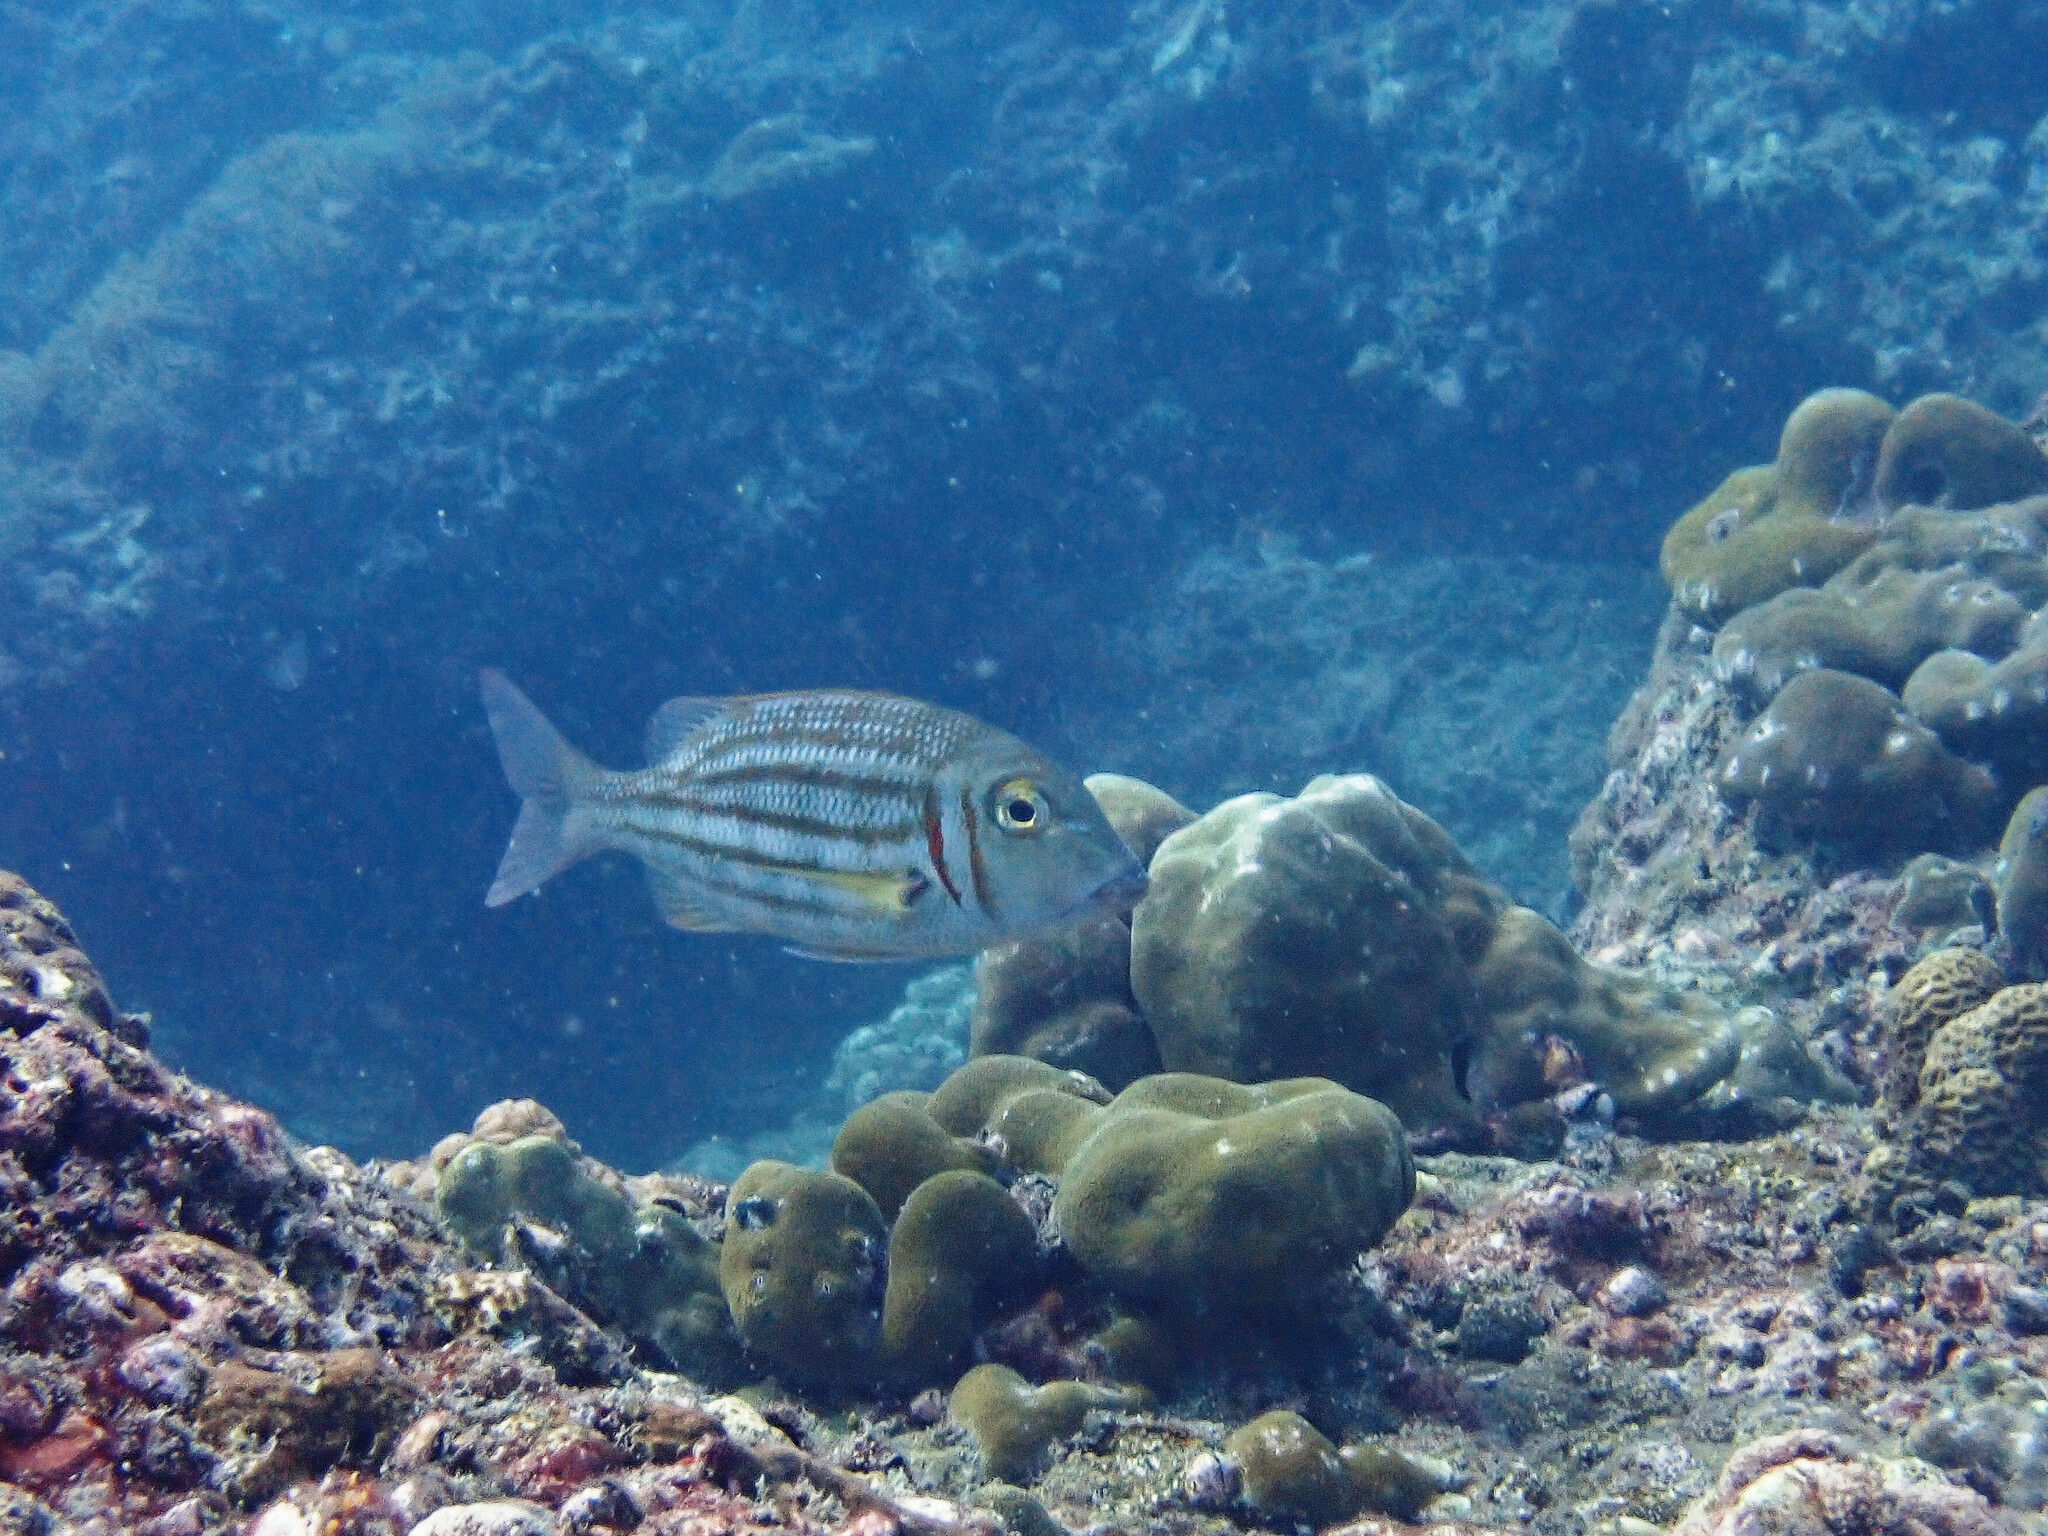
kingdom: Animalia
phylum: Chordata
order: Perciformes
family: Lethrinidae
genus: Lethrinus
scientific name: Lethrinus ornatus
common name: Ornate emperor
